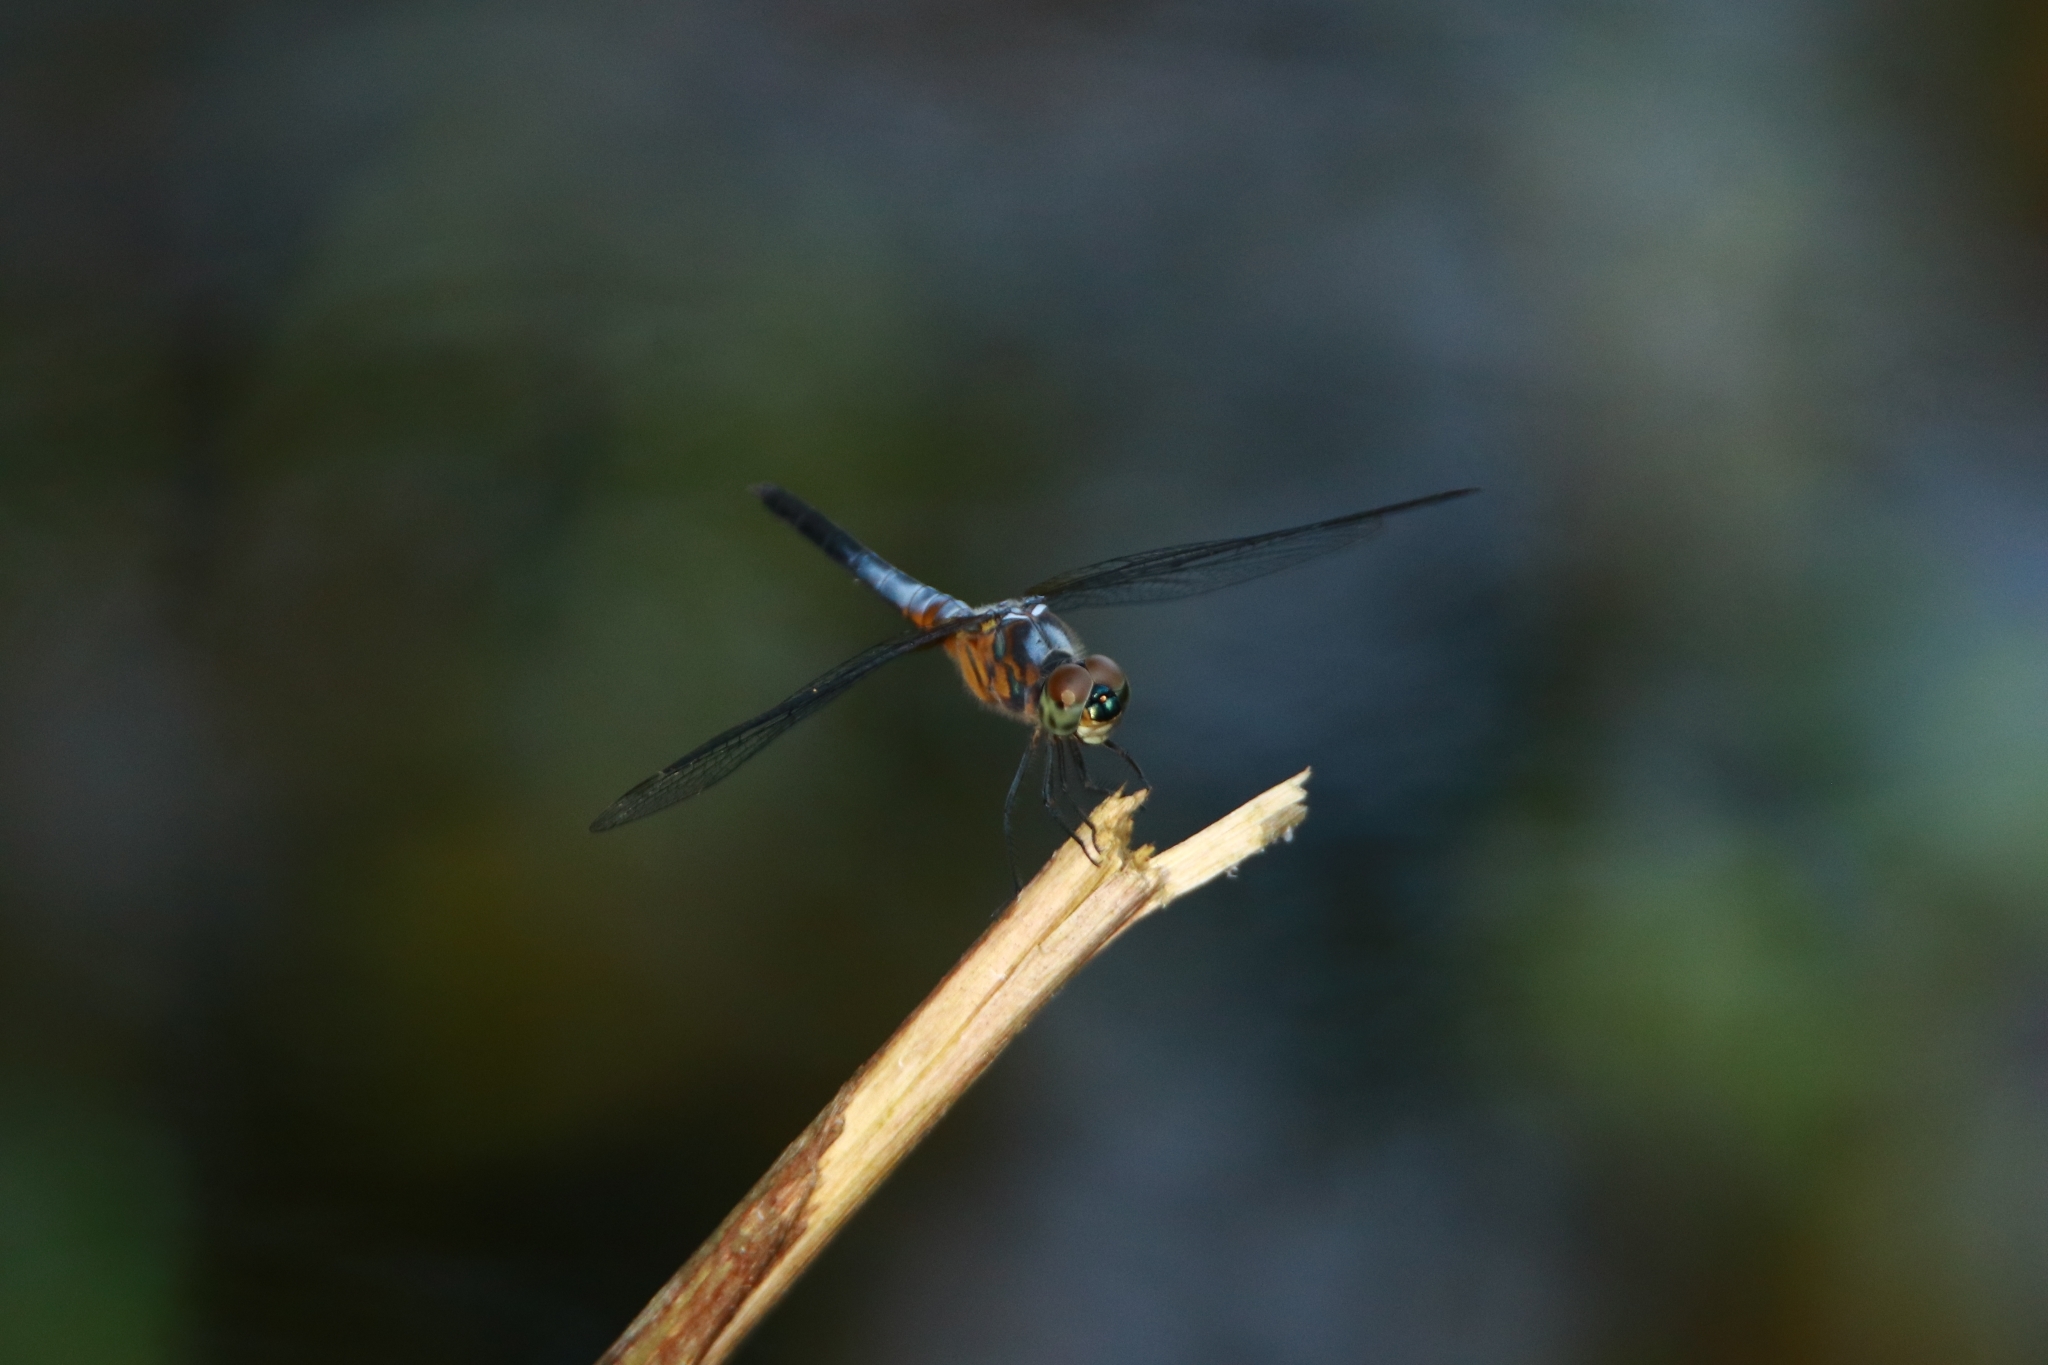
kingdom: Animalia
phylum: Arthropoda
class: Insecta
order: Odonata
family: Libellulidae
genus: Brachydiplax
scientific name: Brachydiplax chalybea
